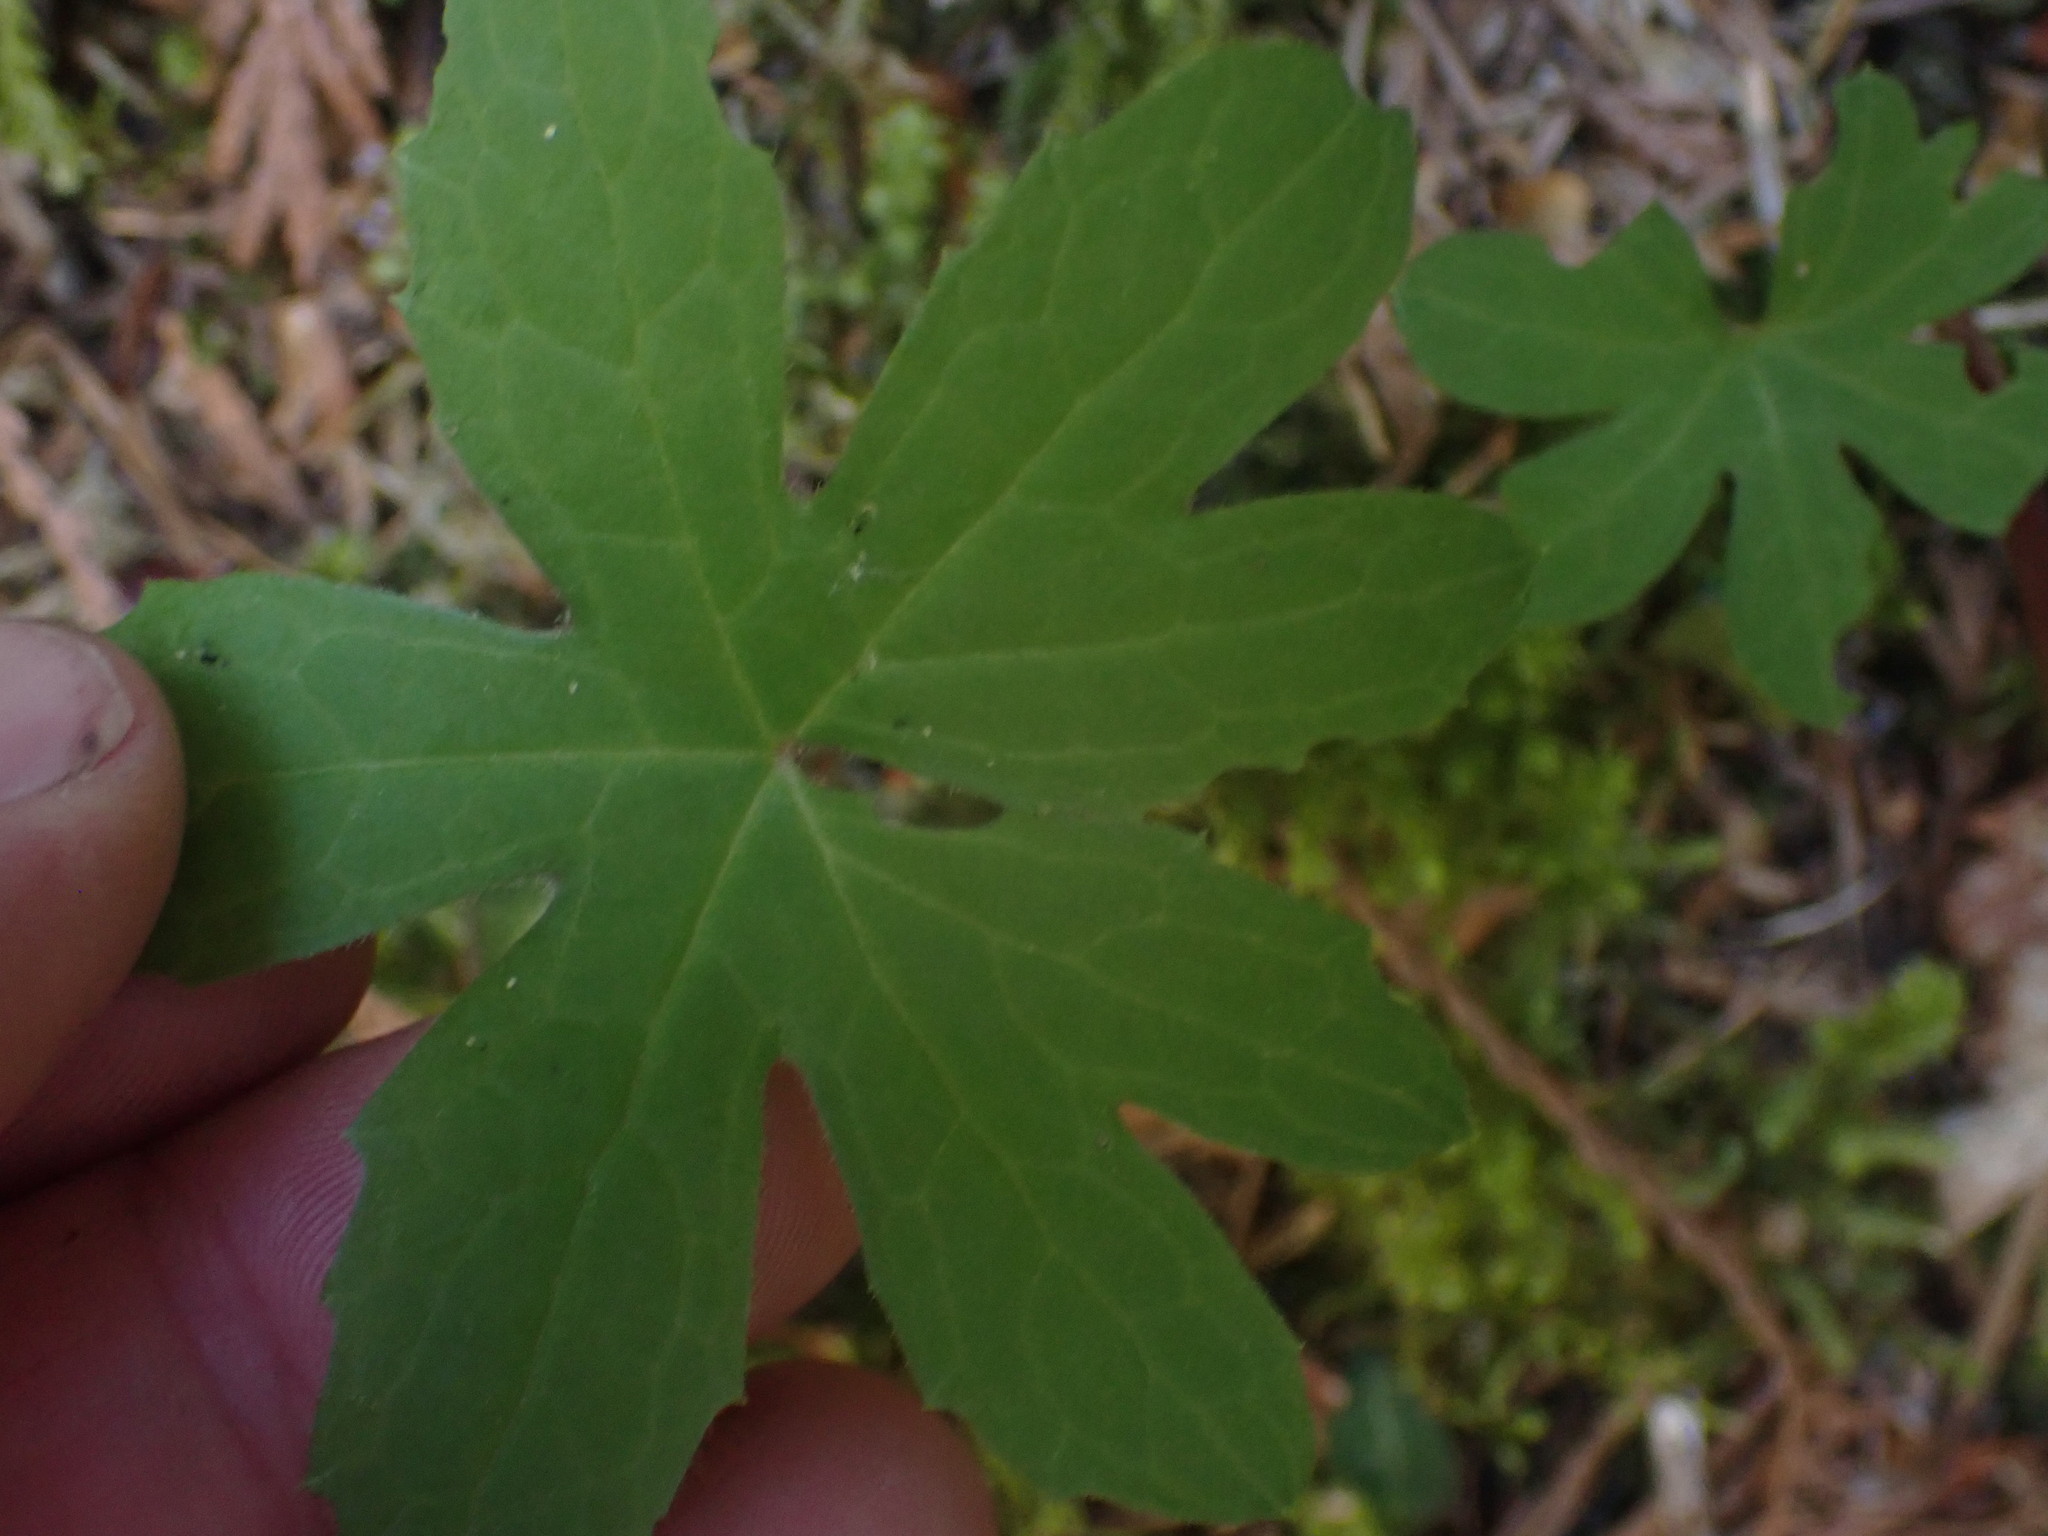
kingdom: Plantae
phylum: Tracheophyta
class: Magnoliopsida
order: Asterales
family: Asteraceae
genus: Petasites
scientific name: Petasites frigidus
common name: Arctic butterbur
